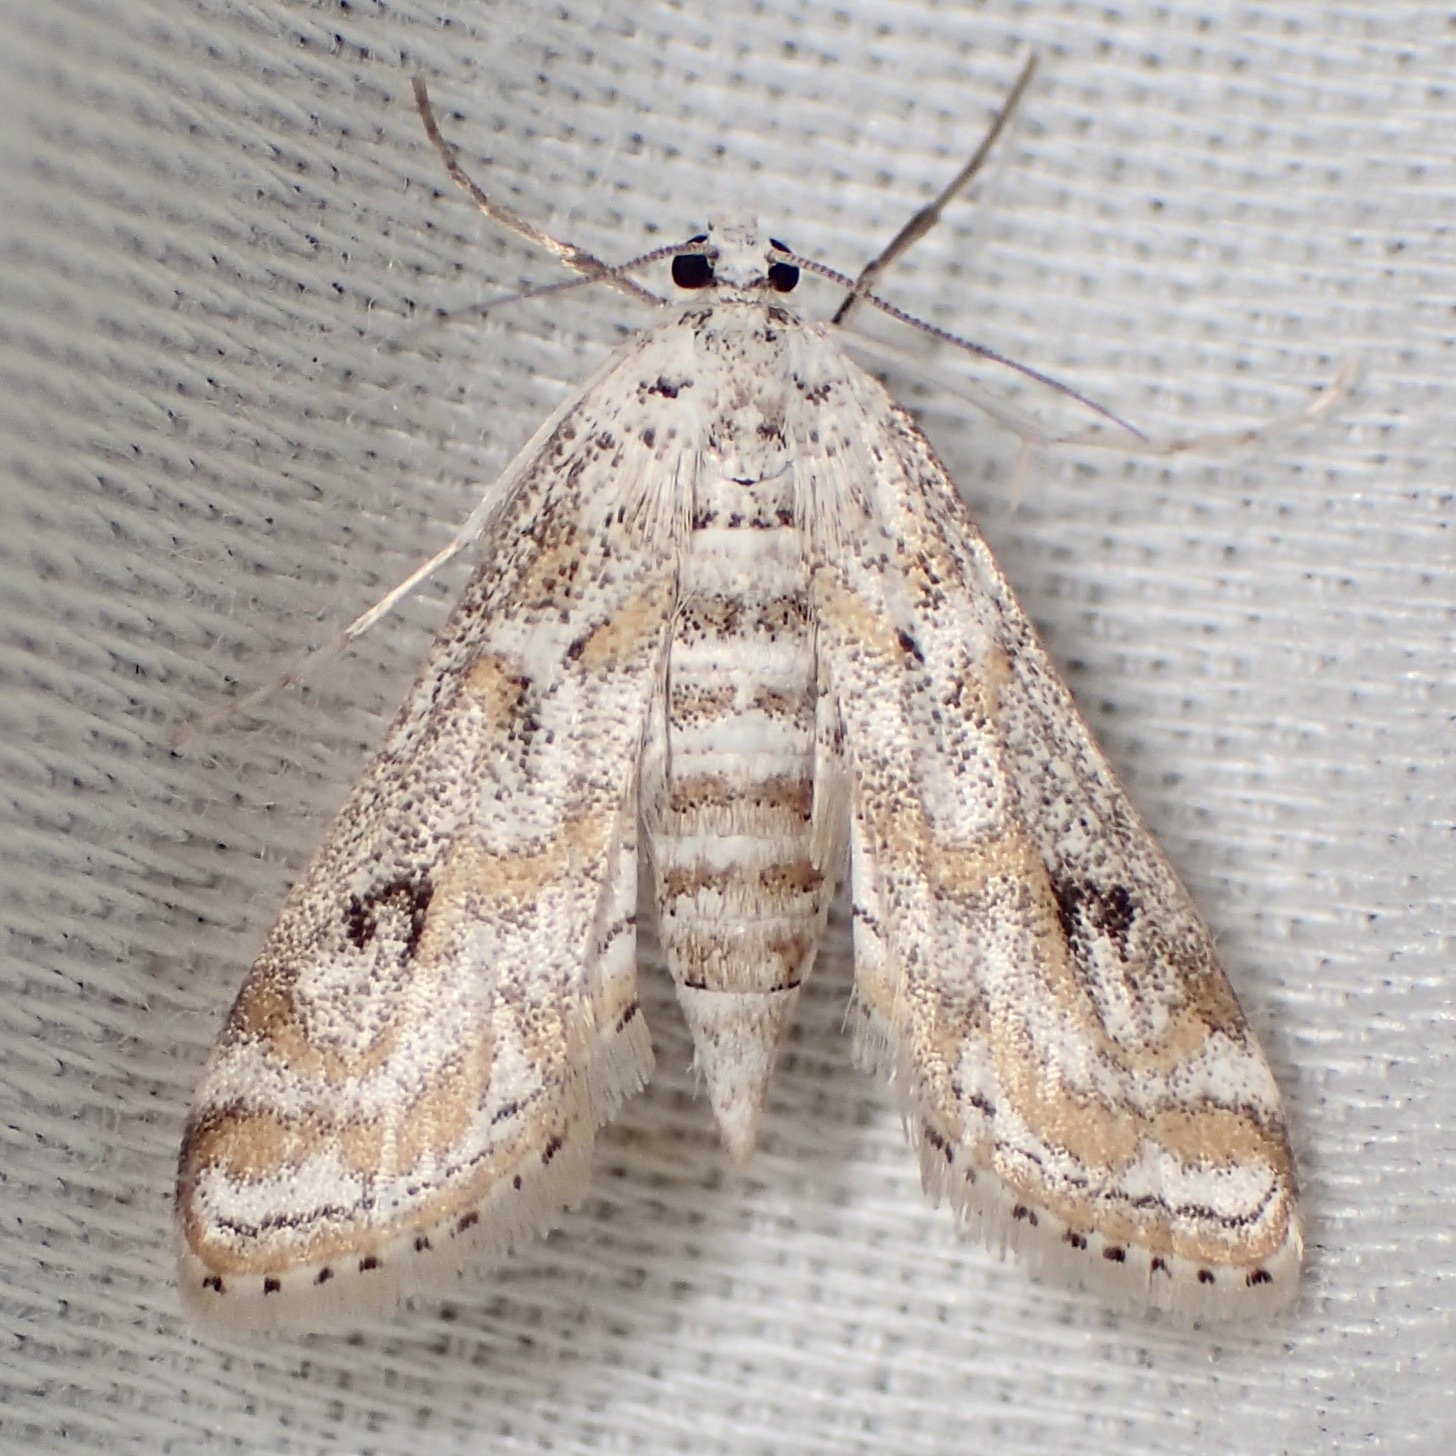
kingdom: Animalia
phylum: Arthropoda
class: Insecta
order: Lepidoptera
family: Crambidae
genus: Parapoynx
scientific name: Parapoynx diminutalis
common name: Hydrilla leafcutter
